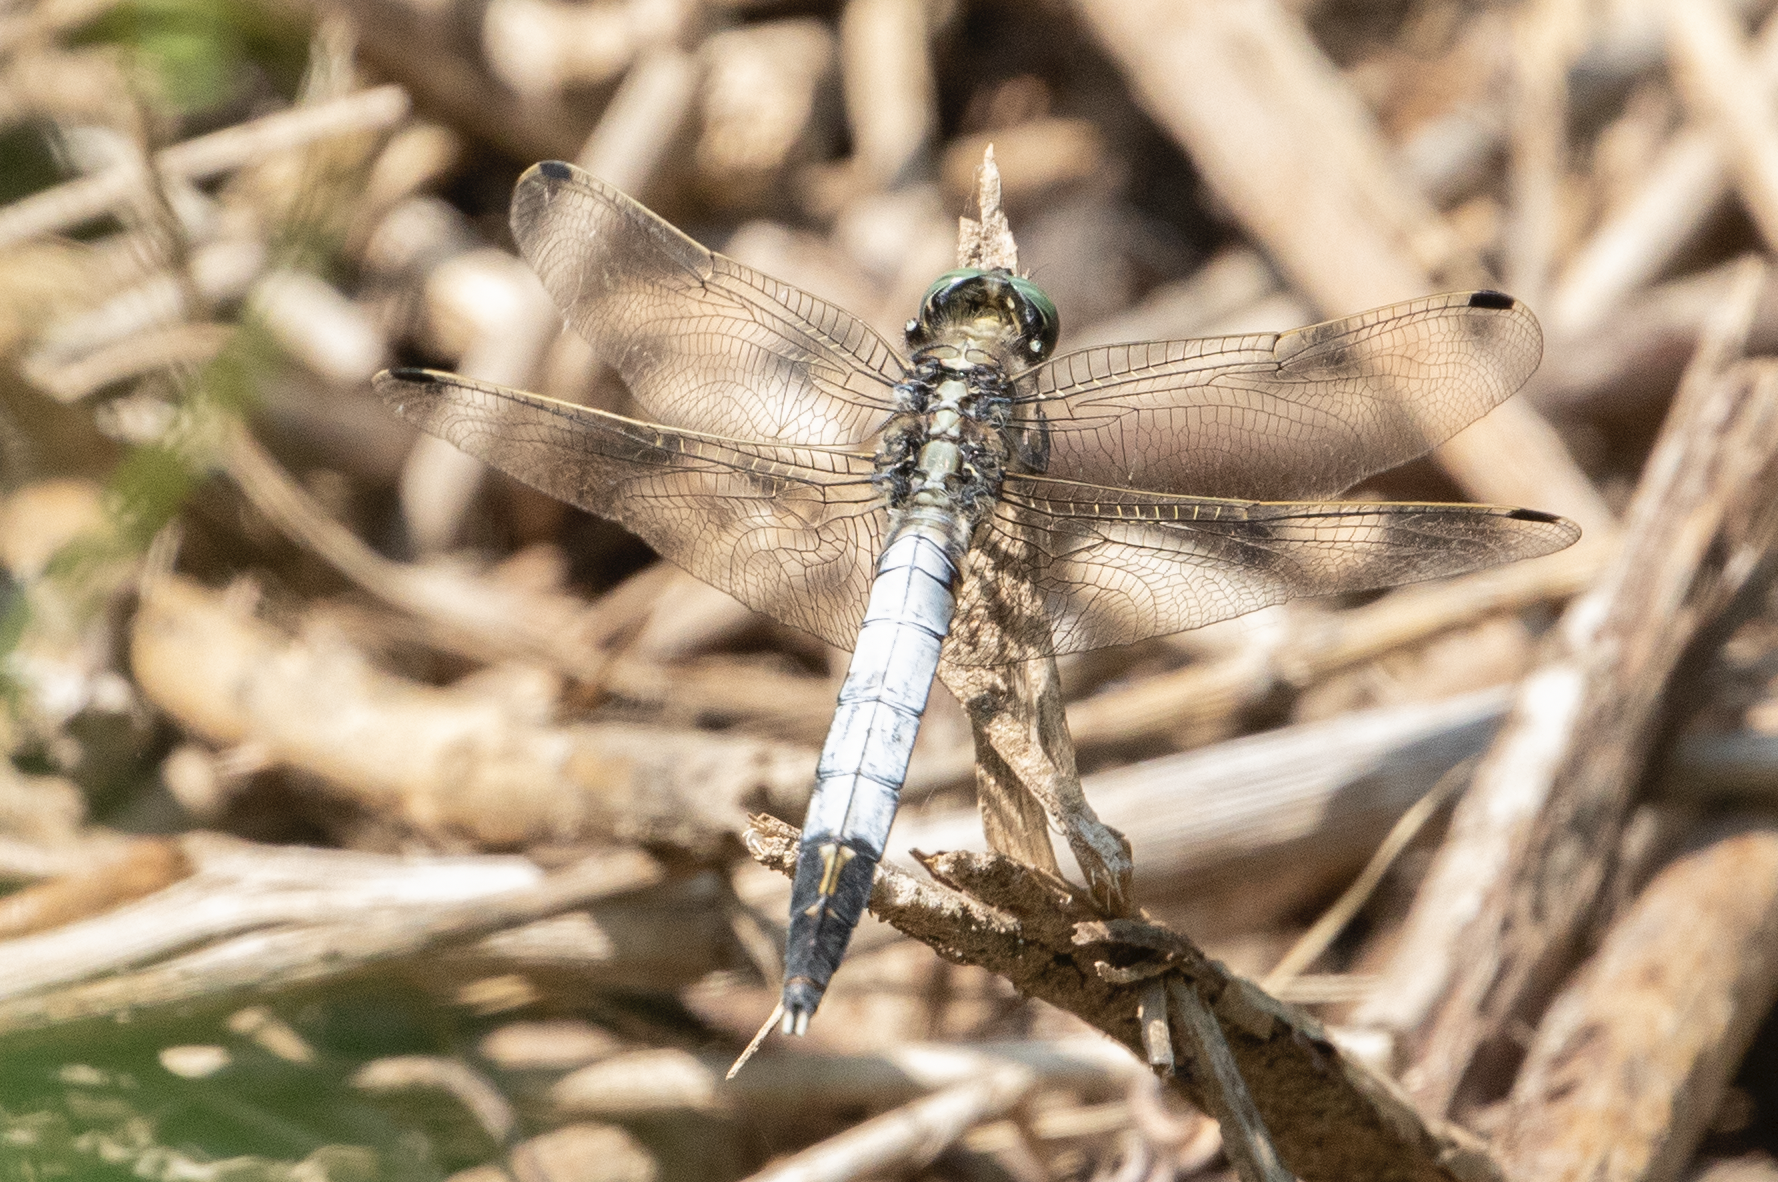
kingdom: Animalia
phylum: Arthropoda
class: Insecta
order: Odonata
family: Libellulidae
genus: Orthetrum
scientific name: Orthetrum albistylum
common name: White-tailed skimmer
